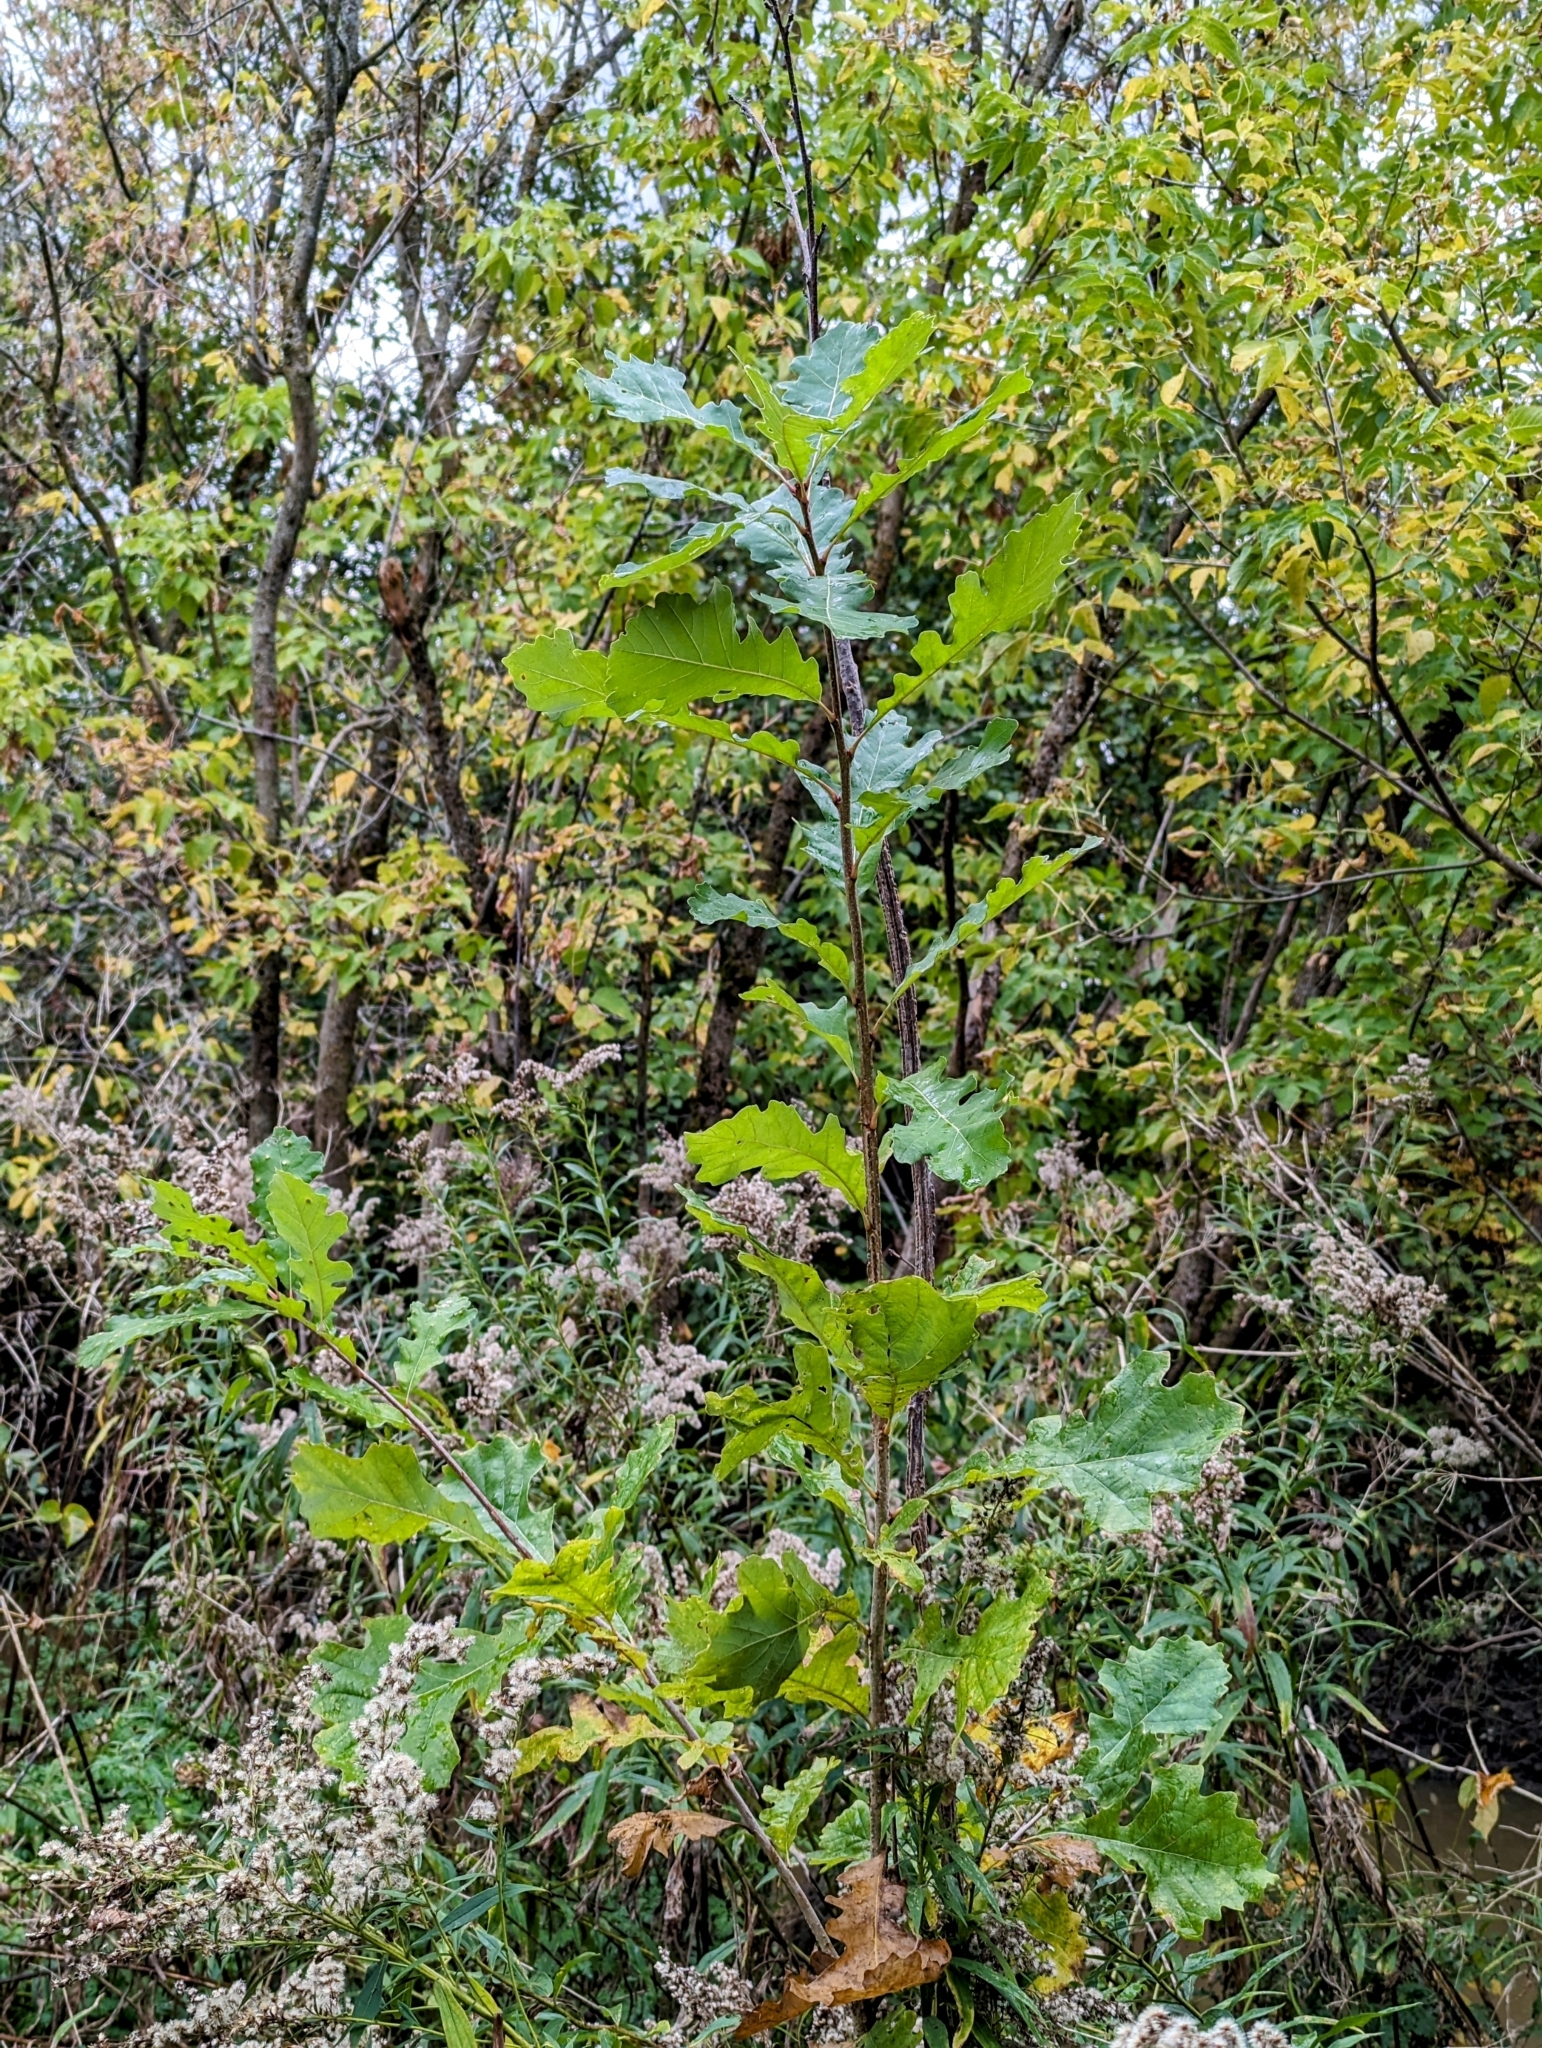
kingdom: Plantae
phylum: Tracheophyta
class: Magnoliopsida
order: Fagales
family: Fagaceae
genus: Quercus
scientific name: Quercus macrocarpa
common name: Bur oak
